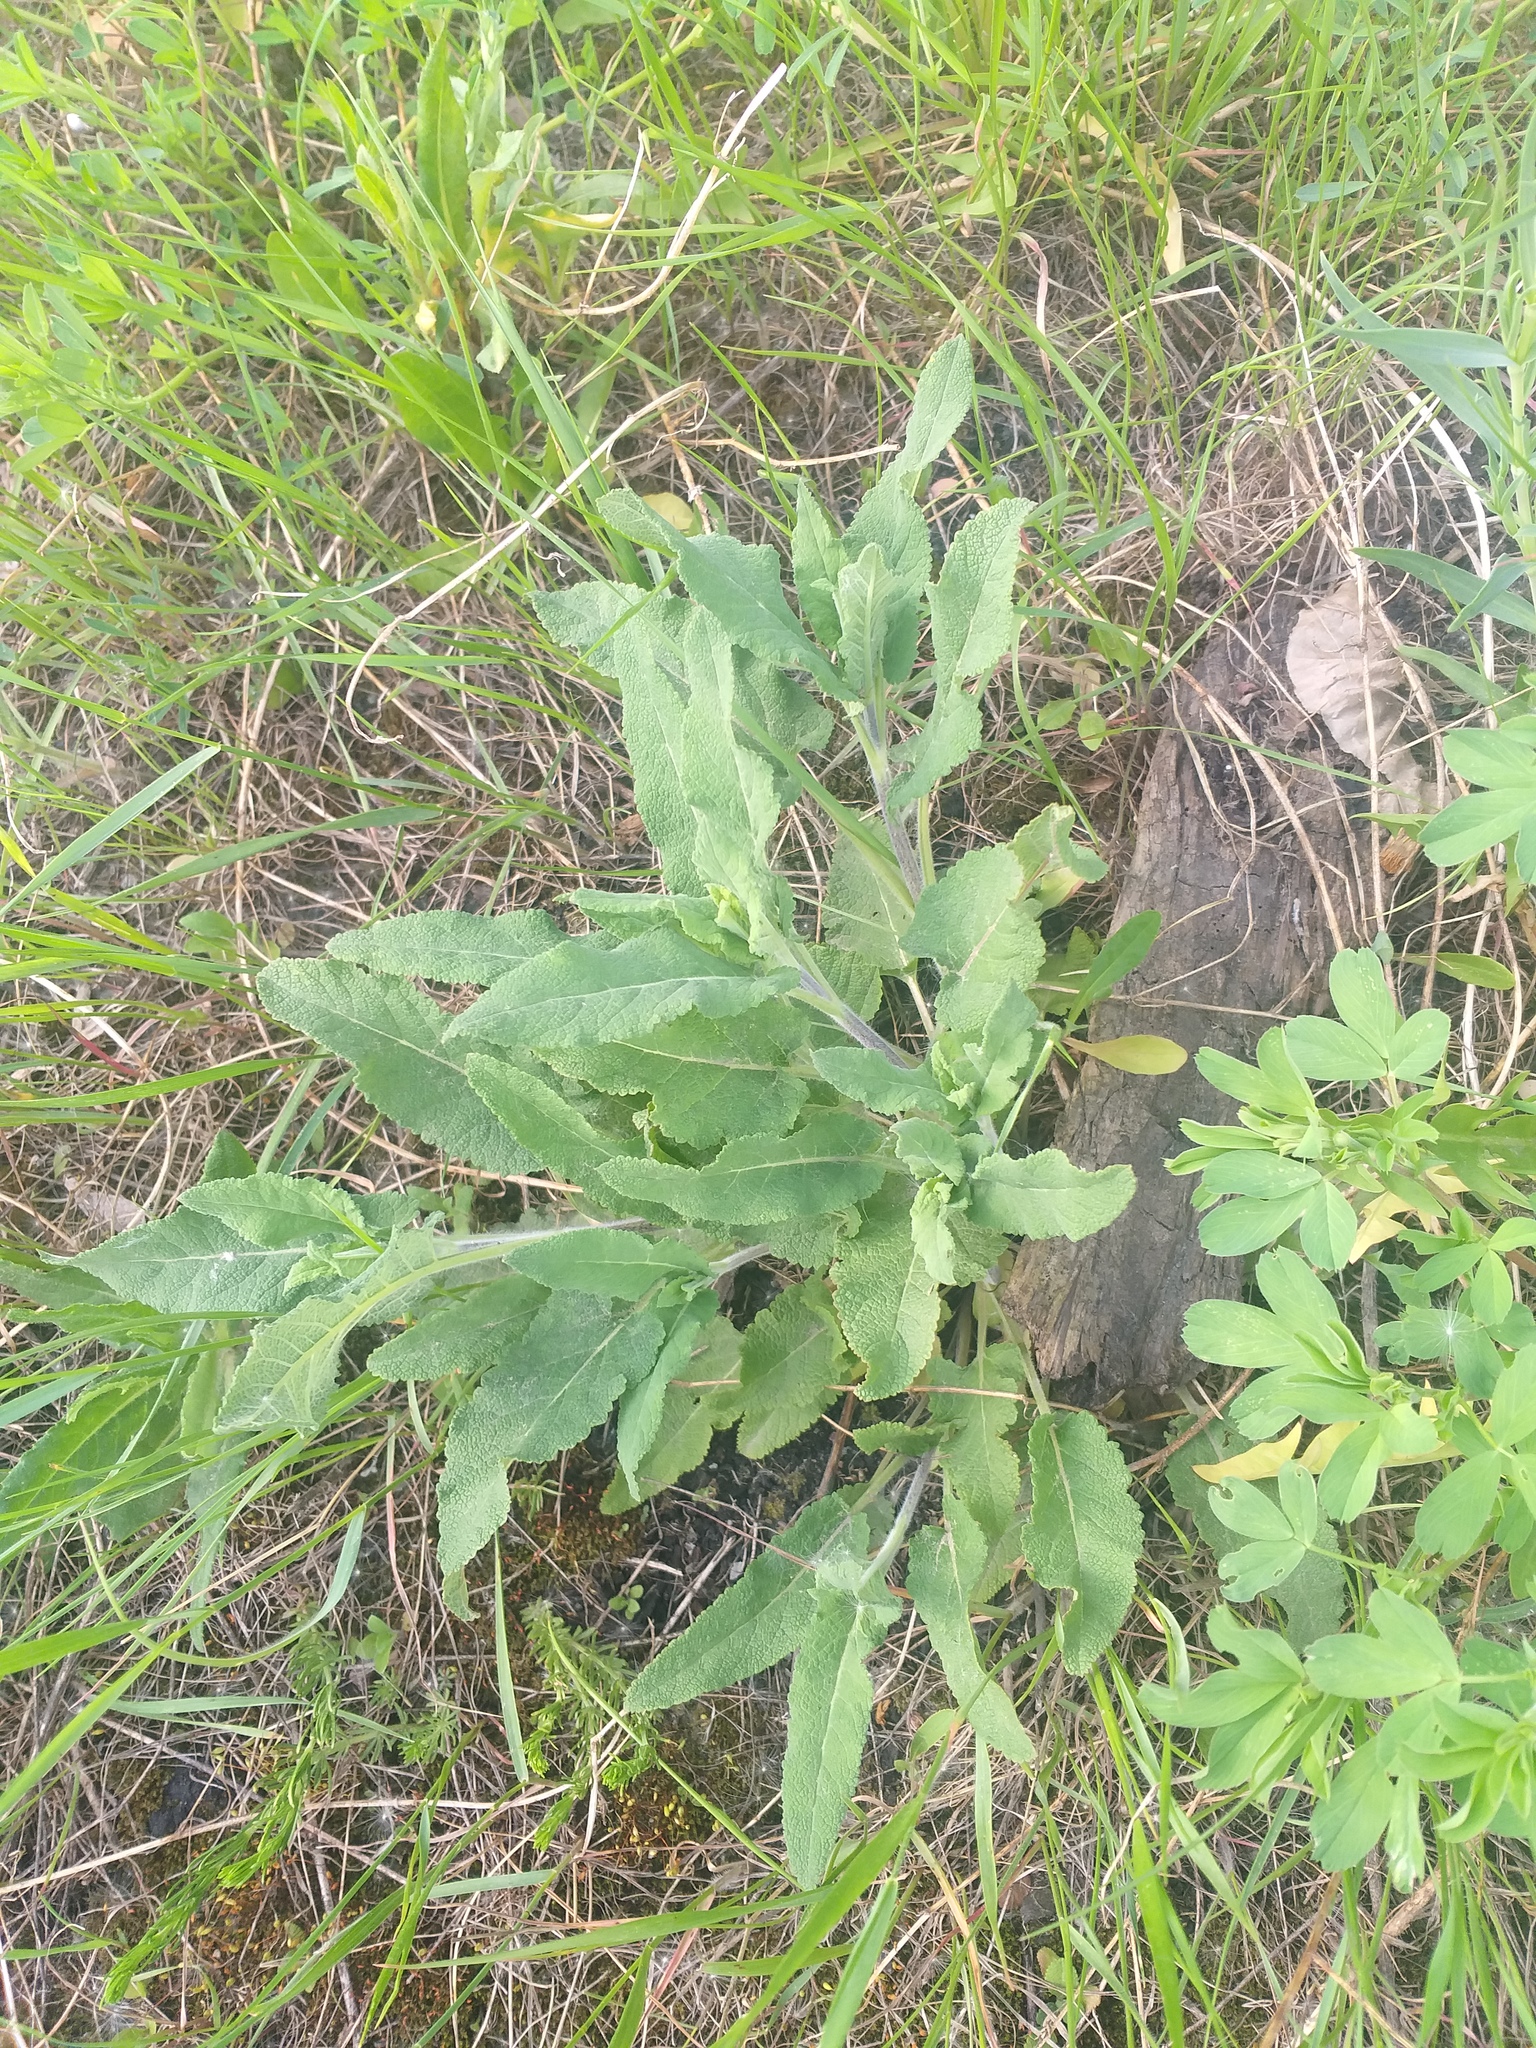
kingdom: Plantae
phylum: Tracheophyta
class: Magnoliopsida
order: Lamiales
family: Lamiaceae
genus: Salvia
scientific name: Salvia nemorosa
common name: Balkan clary
